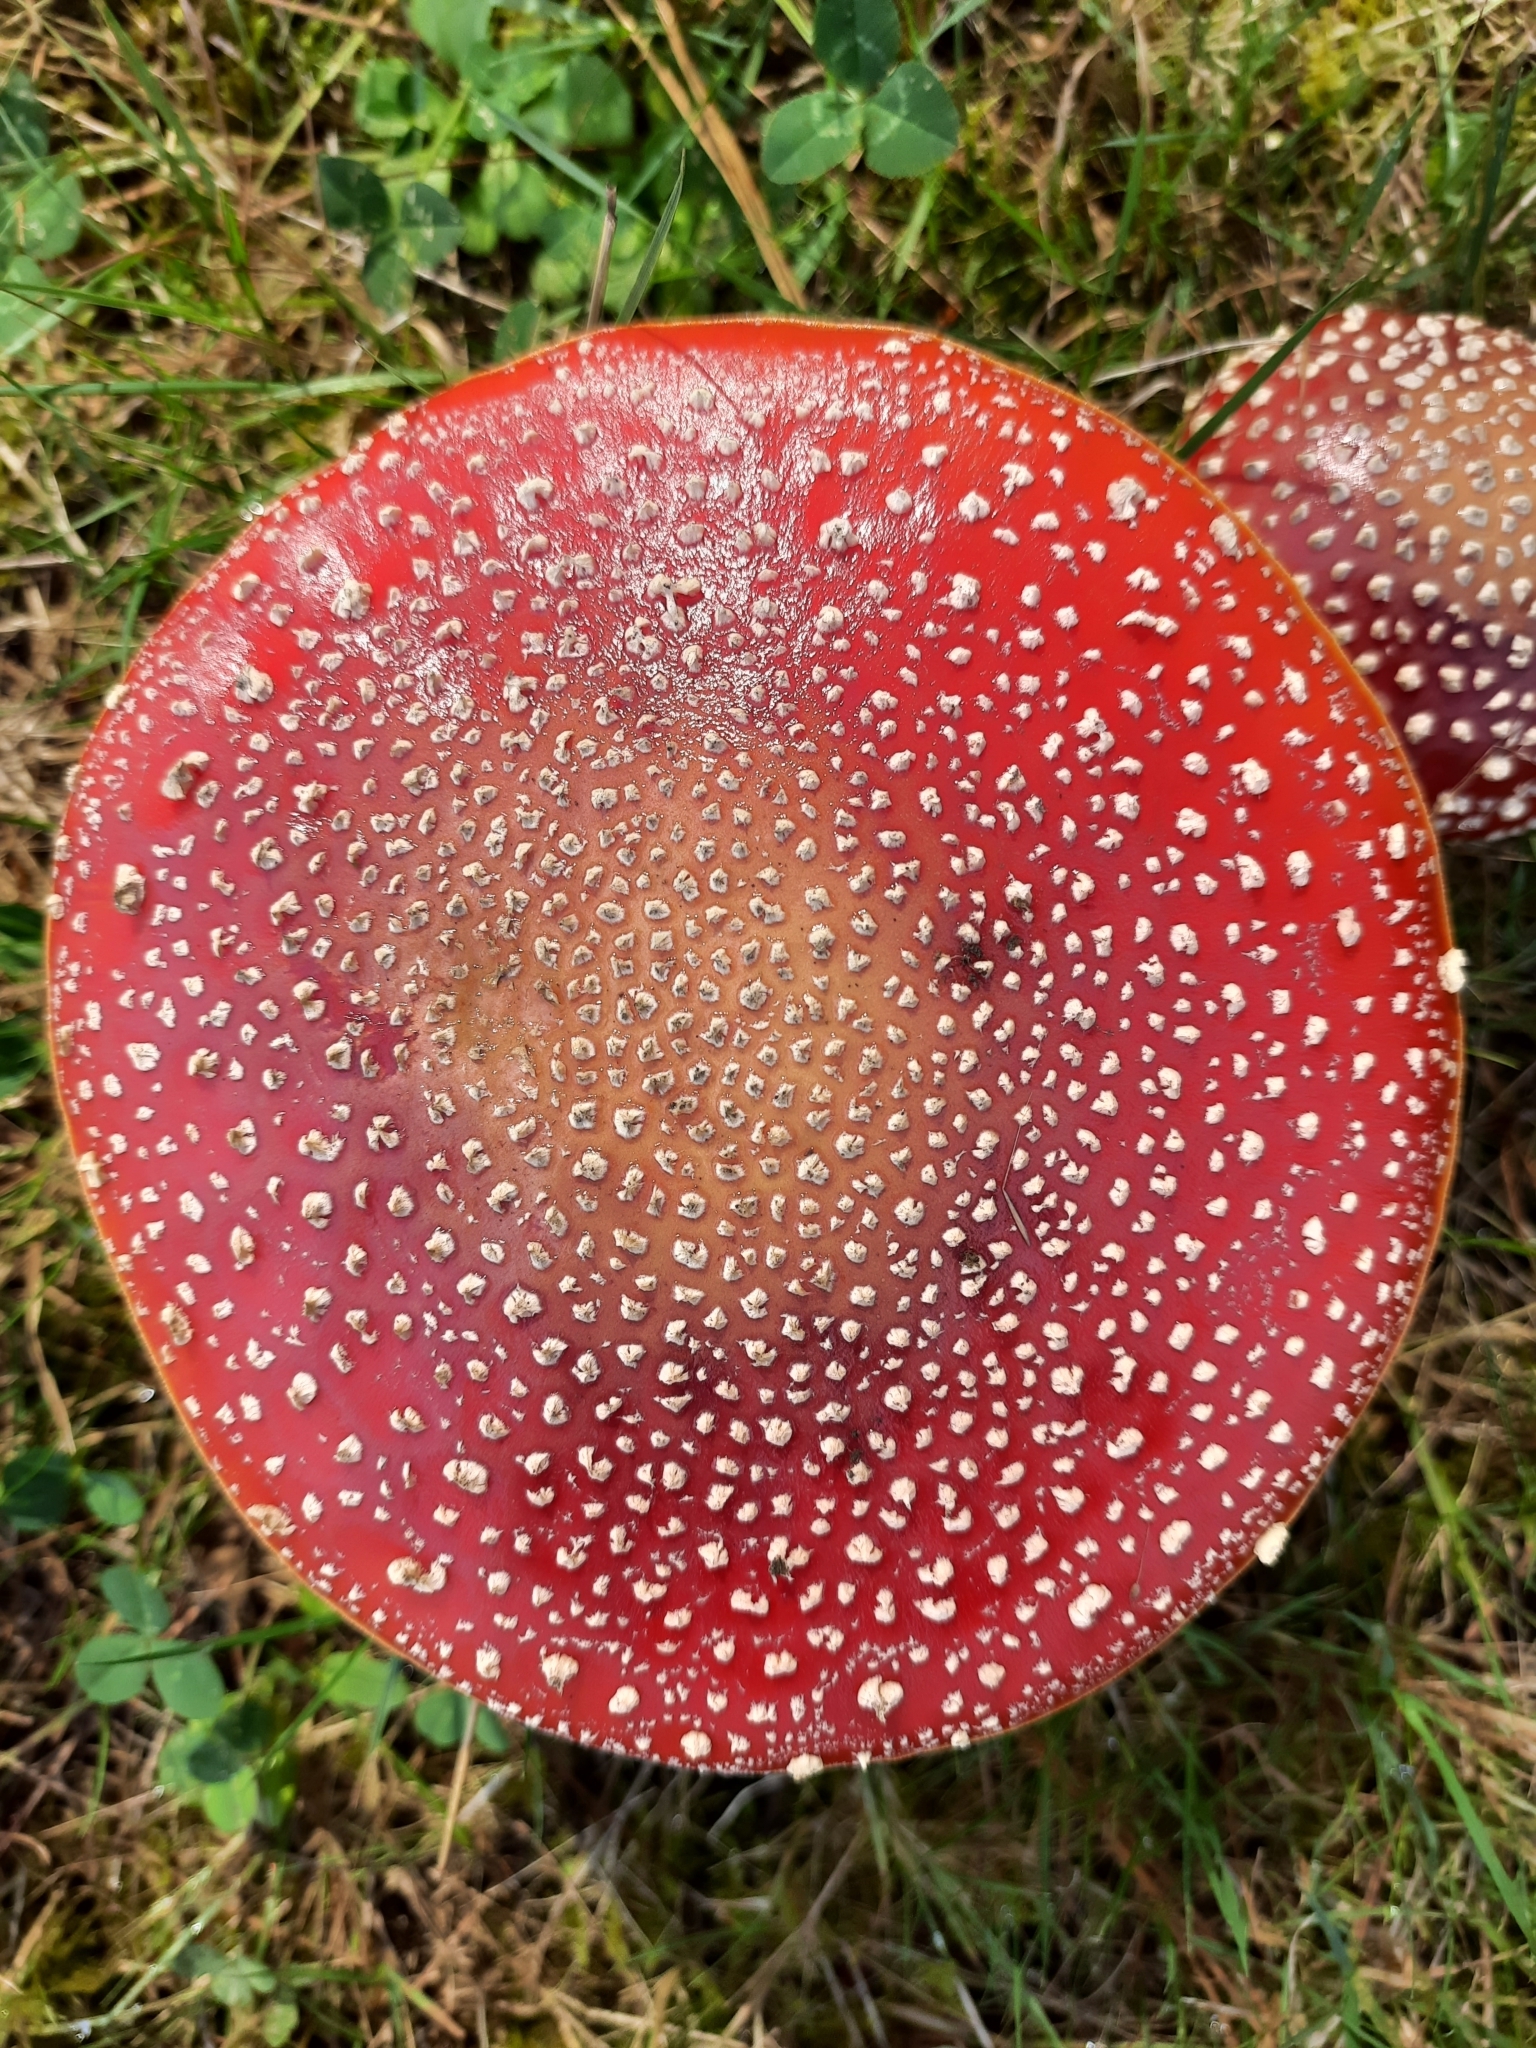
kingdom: Fungi
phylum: Basidiomycota
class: Agaricomycetes
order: Agaricales
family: Amanitaceae
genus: Amanita
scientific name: Amanita muscaria
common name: Fly agaric
